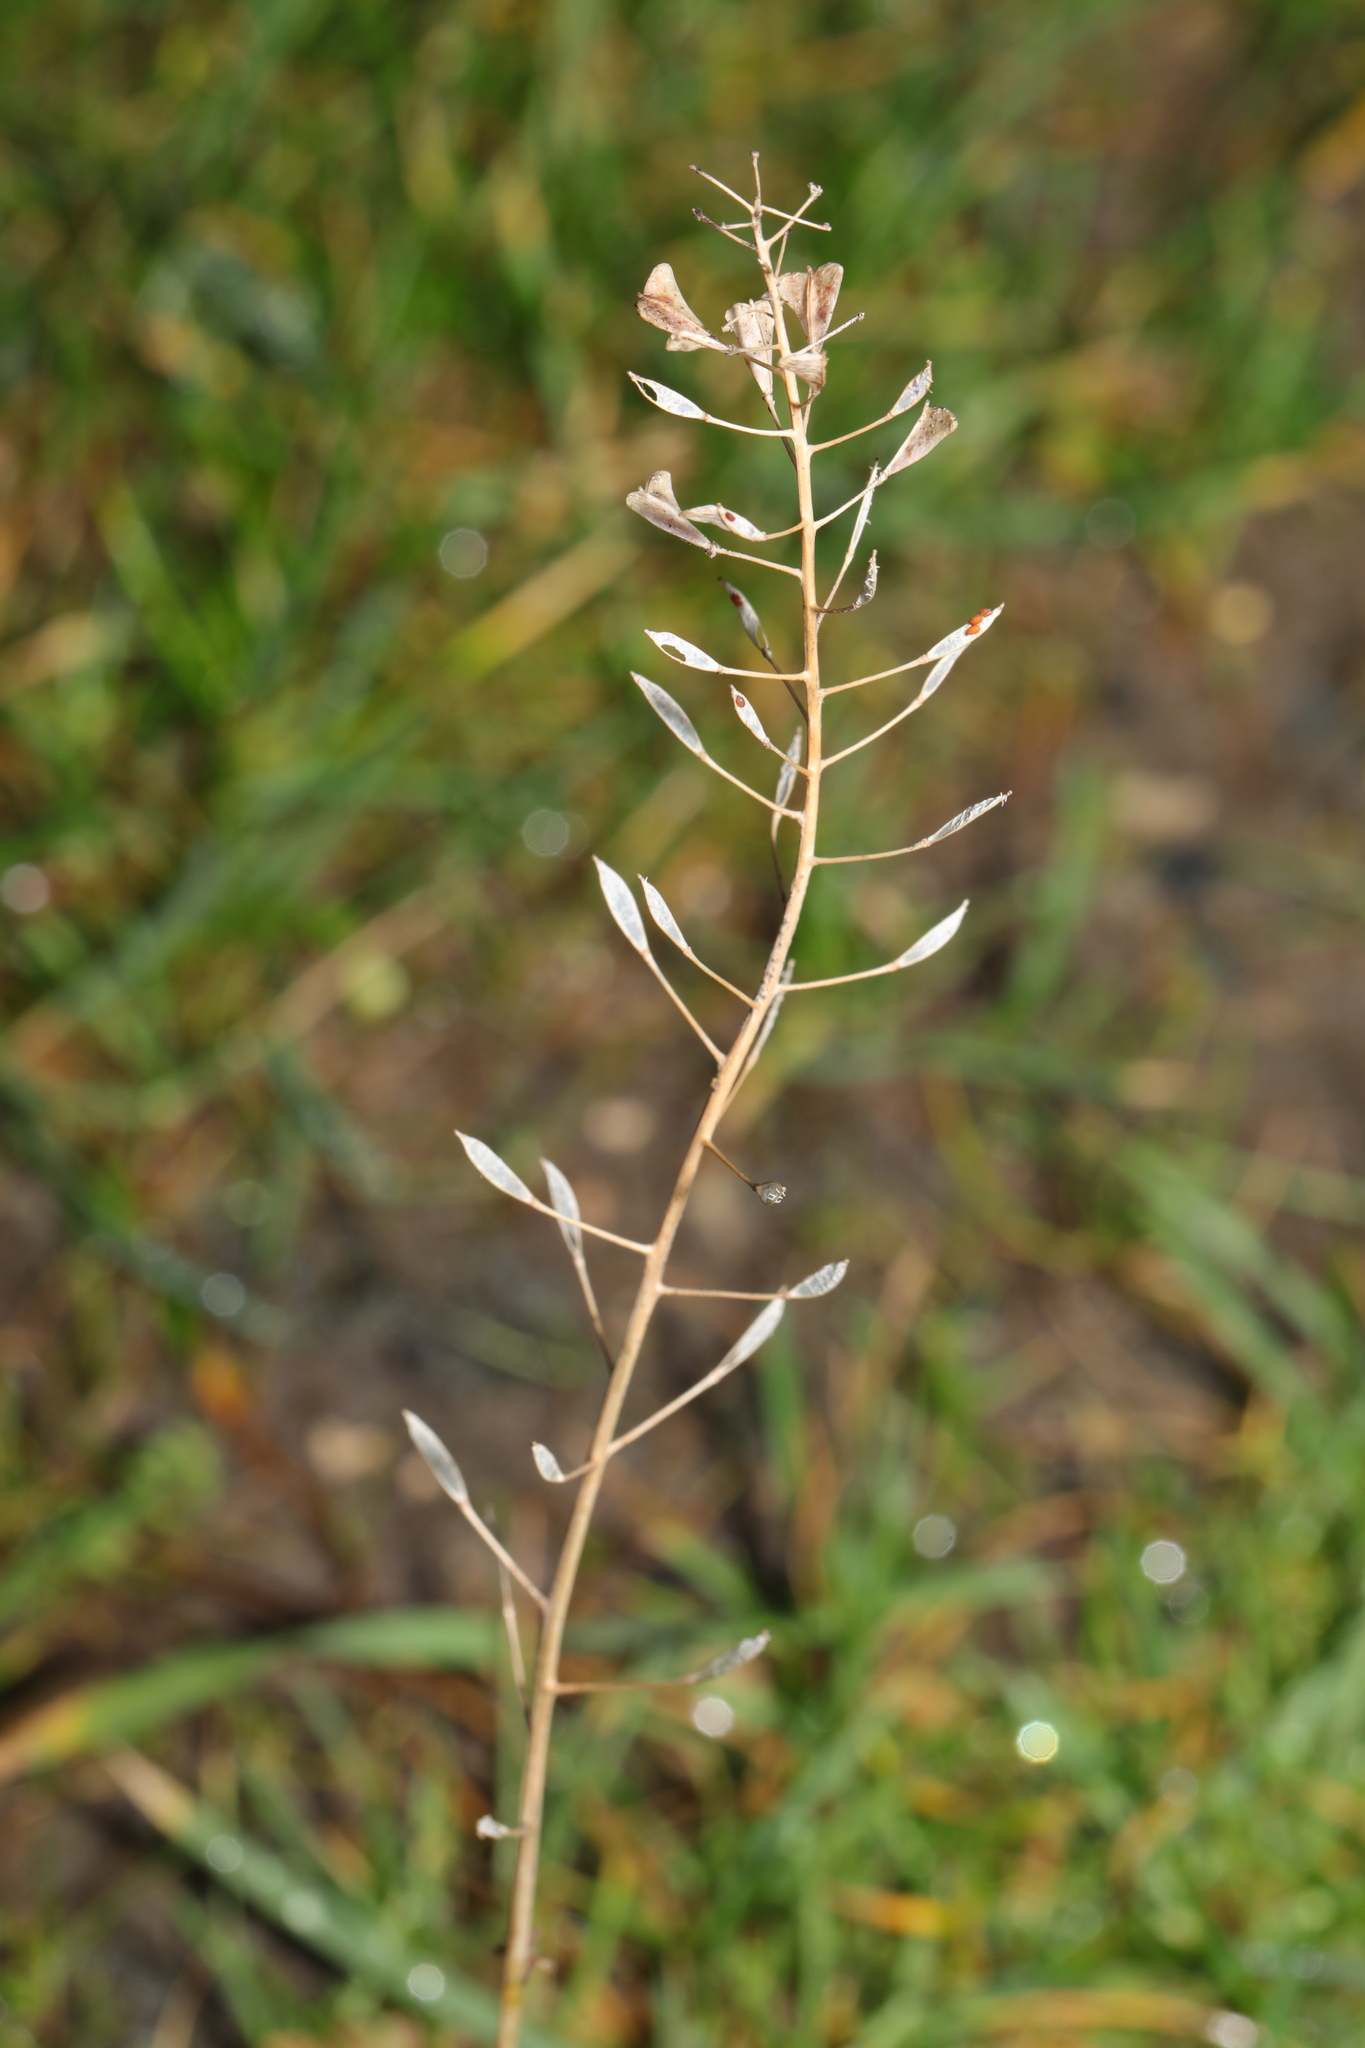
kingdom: Plantae
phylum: Tracheophyta
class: Magnoliopsida
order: Brassicales
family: Brassicaceae
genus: Capsella
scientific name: Capsella bursa-pastoris
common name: Shepherd's purse
